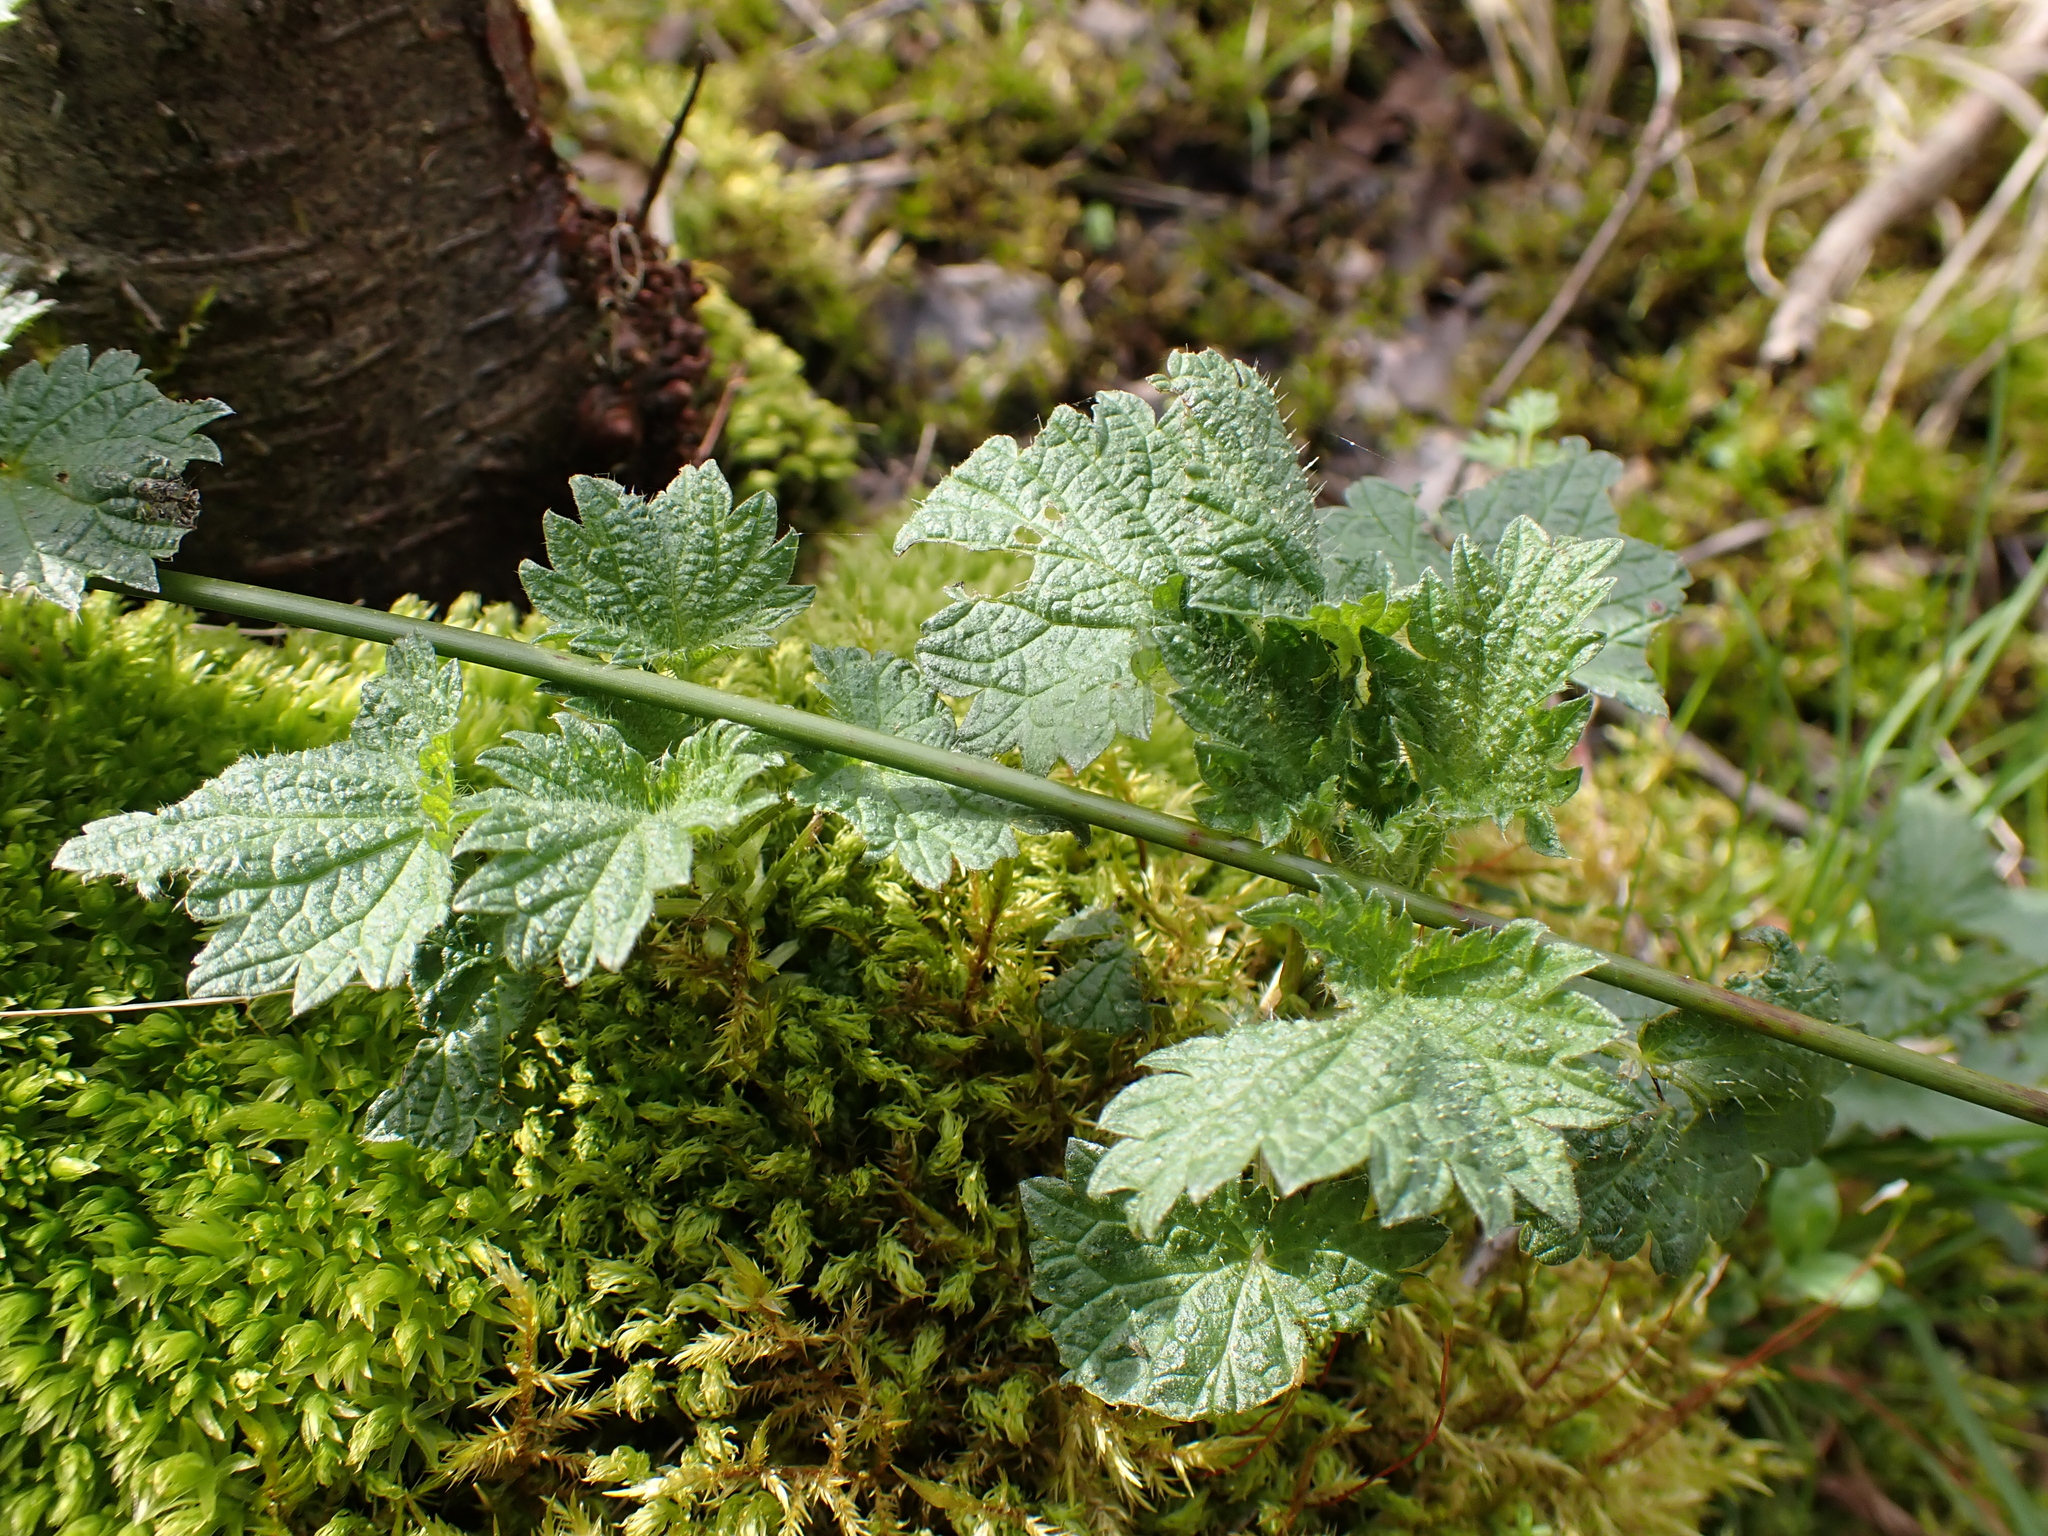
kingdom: Plantae
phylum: Tracheophyta
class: Magnoliopsida
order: Rosales
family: Urticaceae
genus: Urtica
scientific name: Urtica dioica
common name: Common nettle
